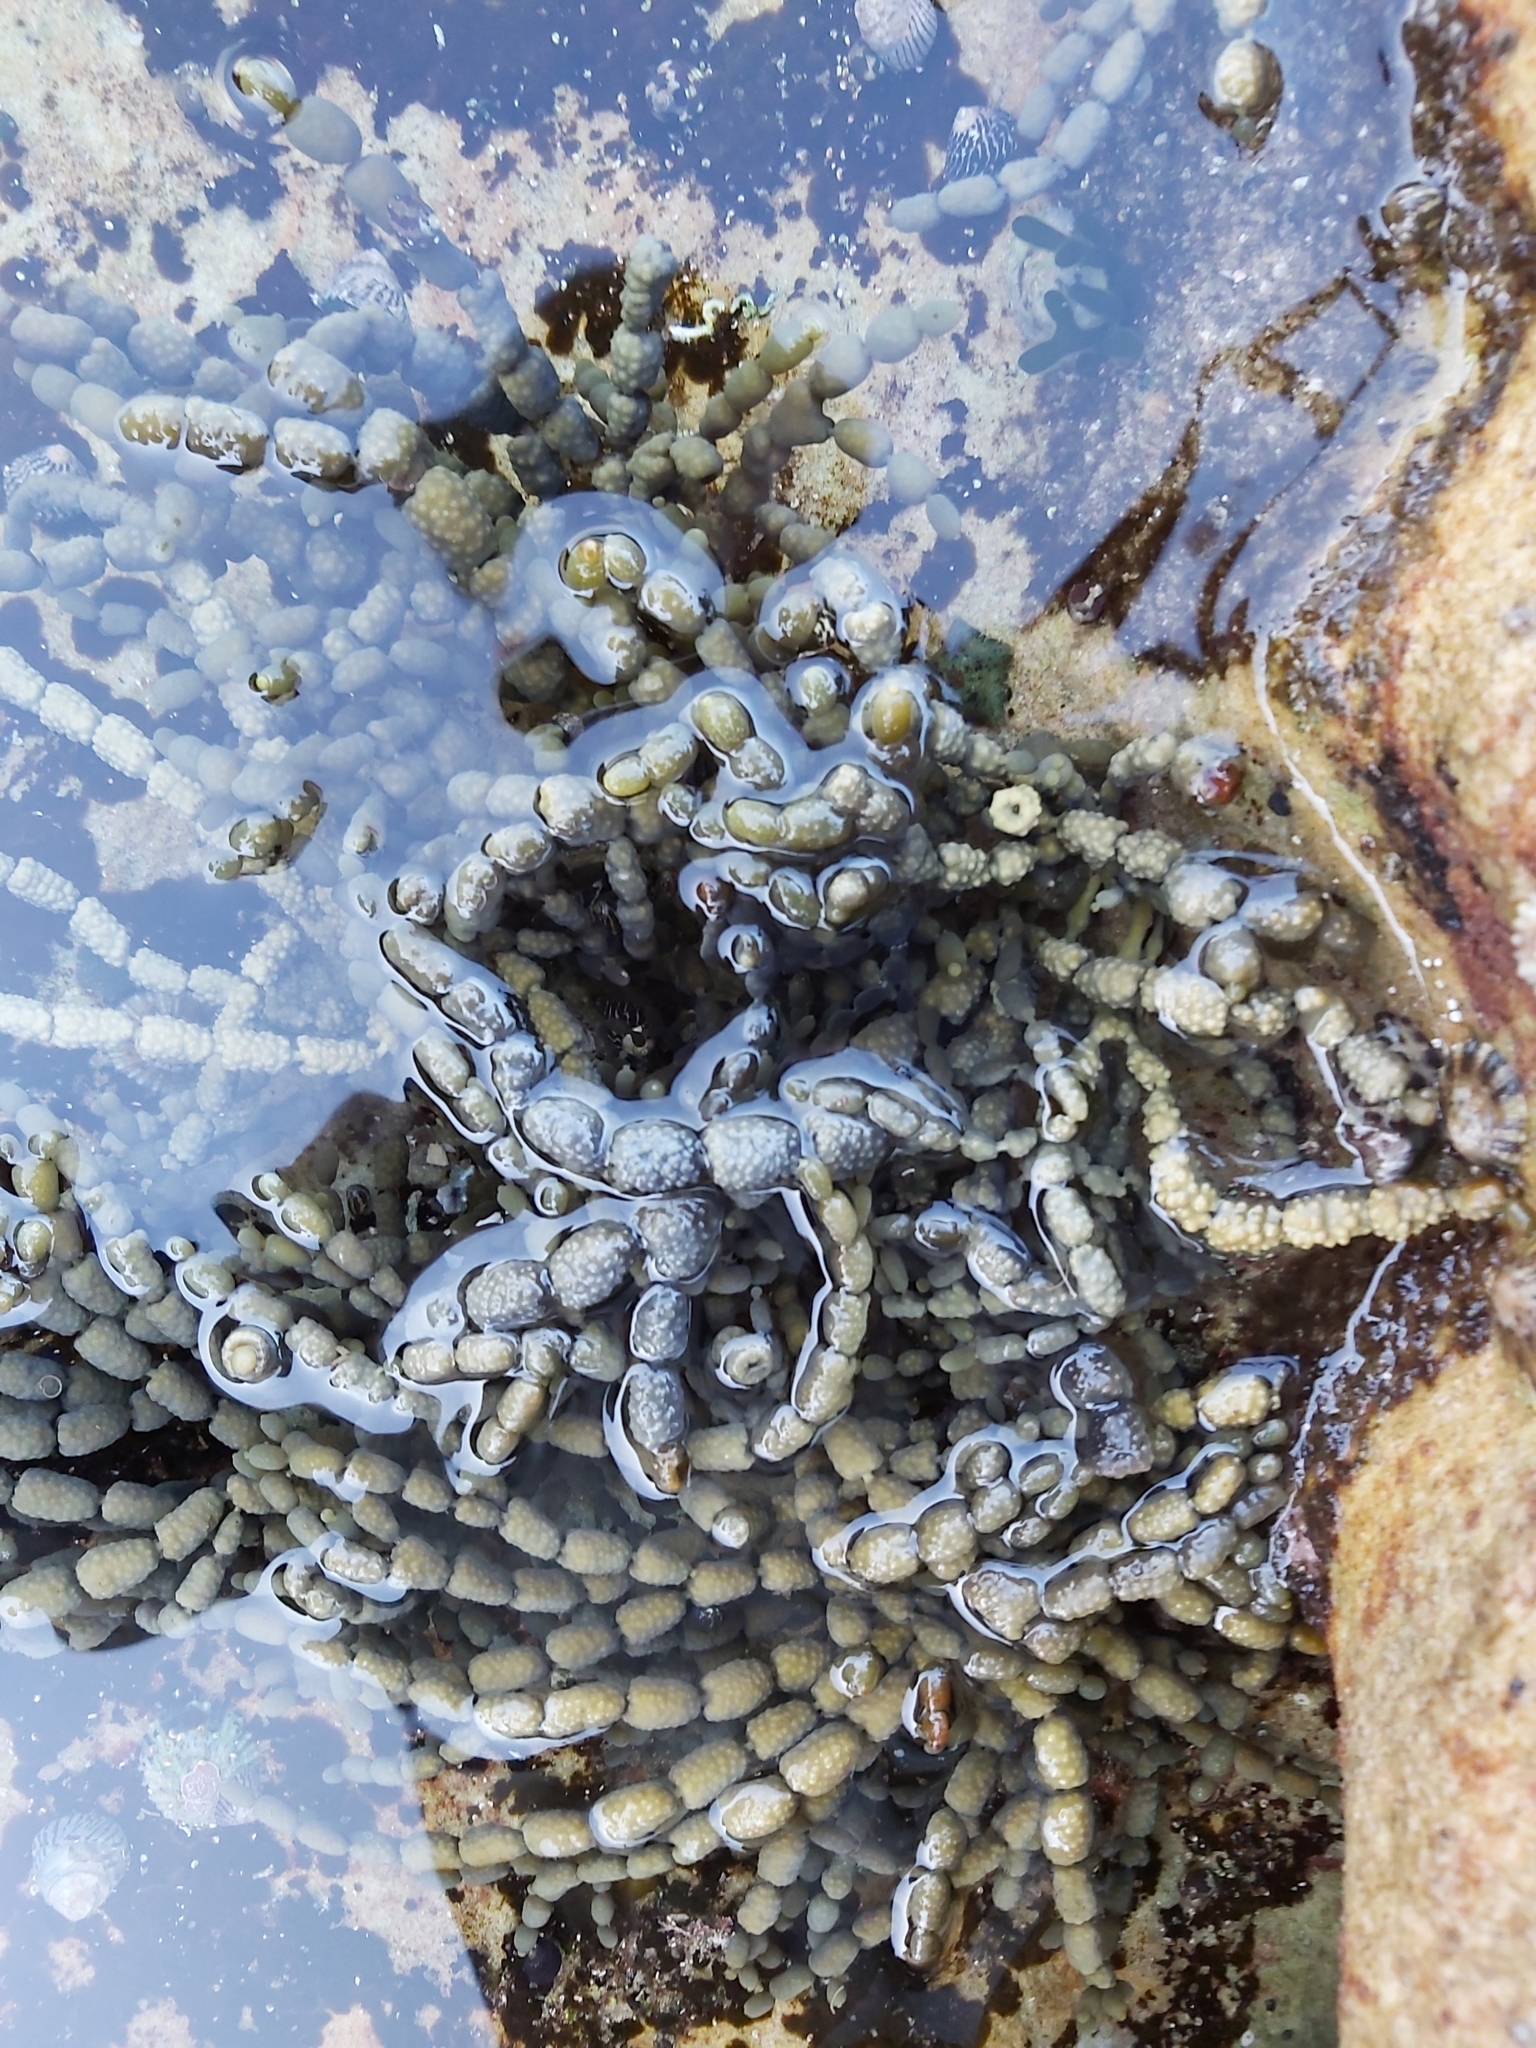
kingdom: Chromista
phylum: Ochrophyta
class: Phaeophyceae
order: Fucales
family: Hormosiraceae
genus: Hormosira
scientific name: Hormosira banksii
